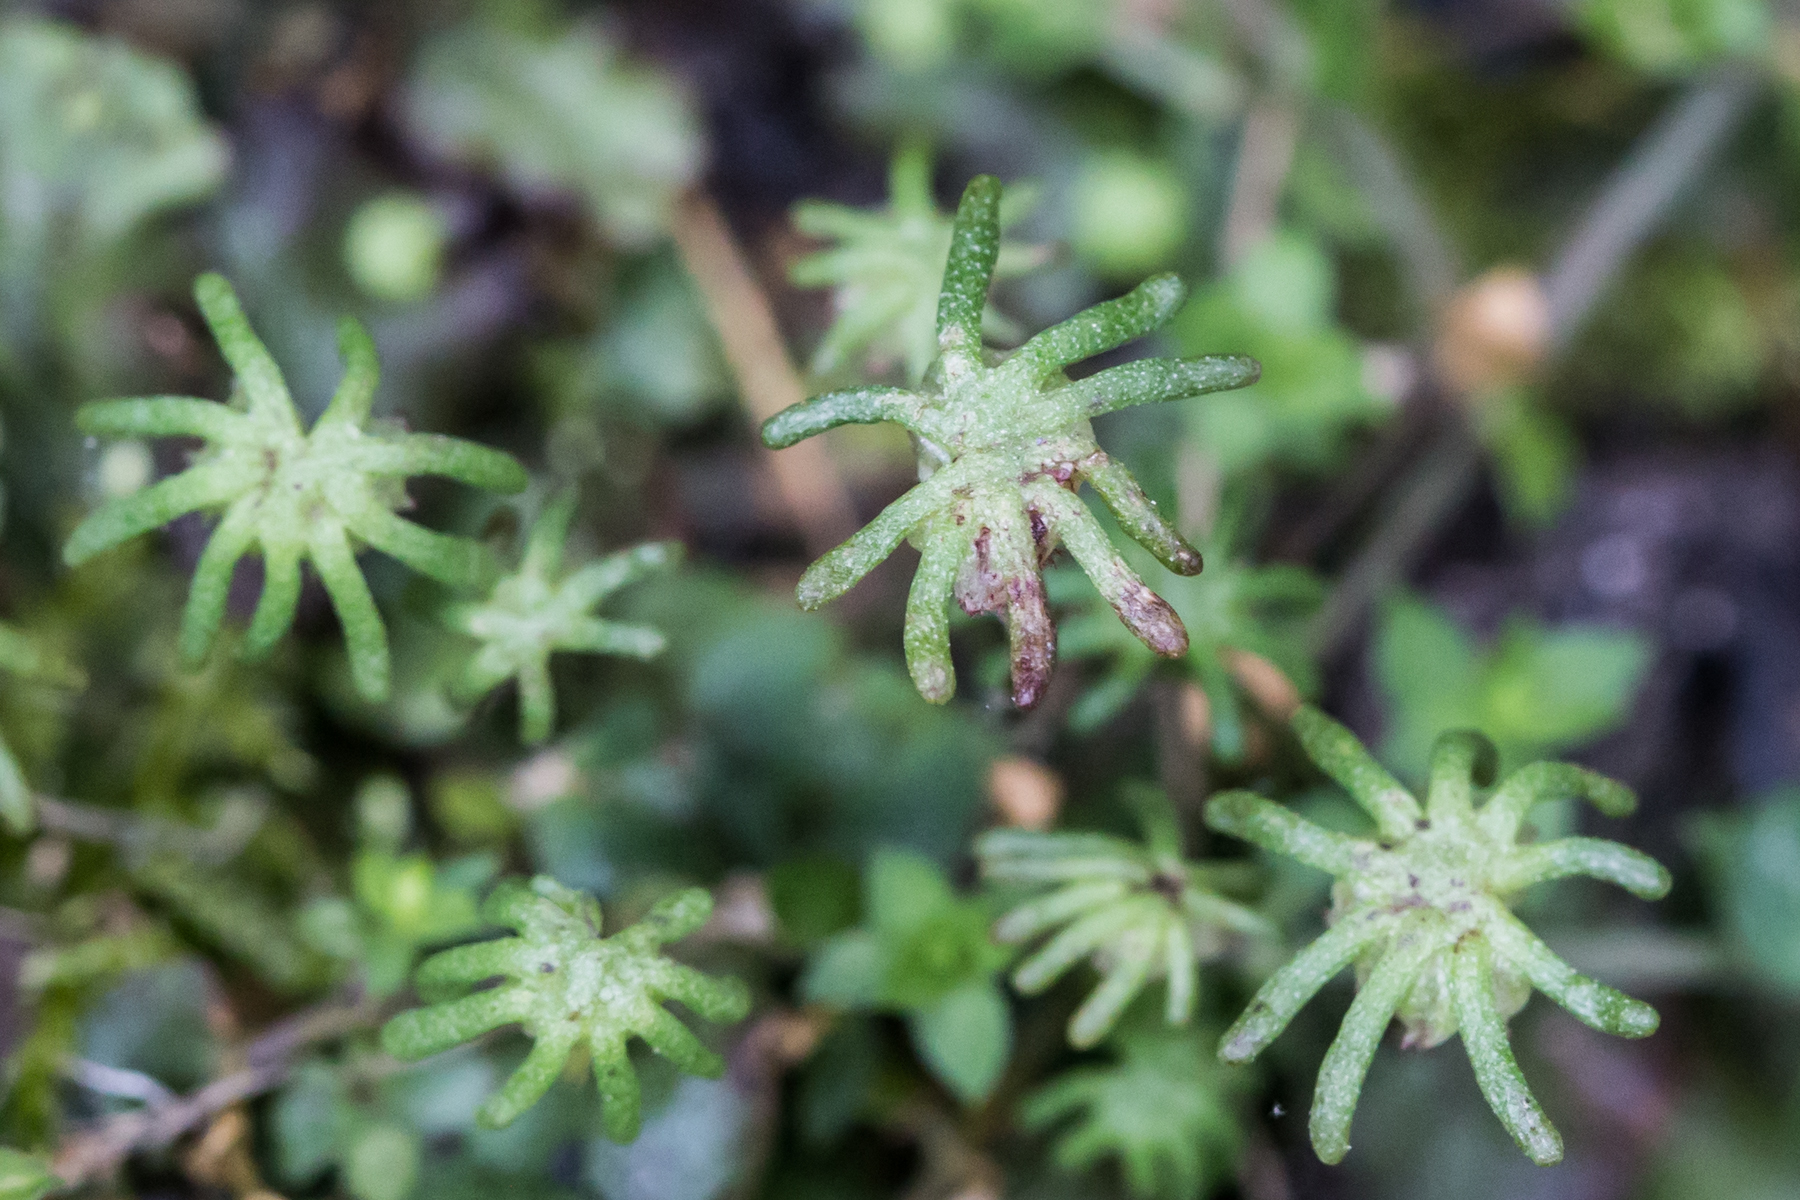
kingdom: Plantae
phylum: Marchantiophyta
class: Marchantiopsida
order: Marchantiales
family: Marchantiaceae
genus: Marchantia
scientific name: Marchantia polymorpha
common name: Common liverwort
